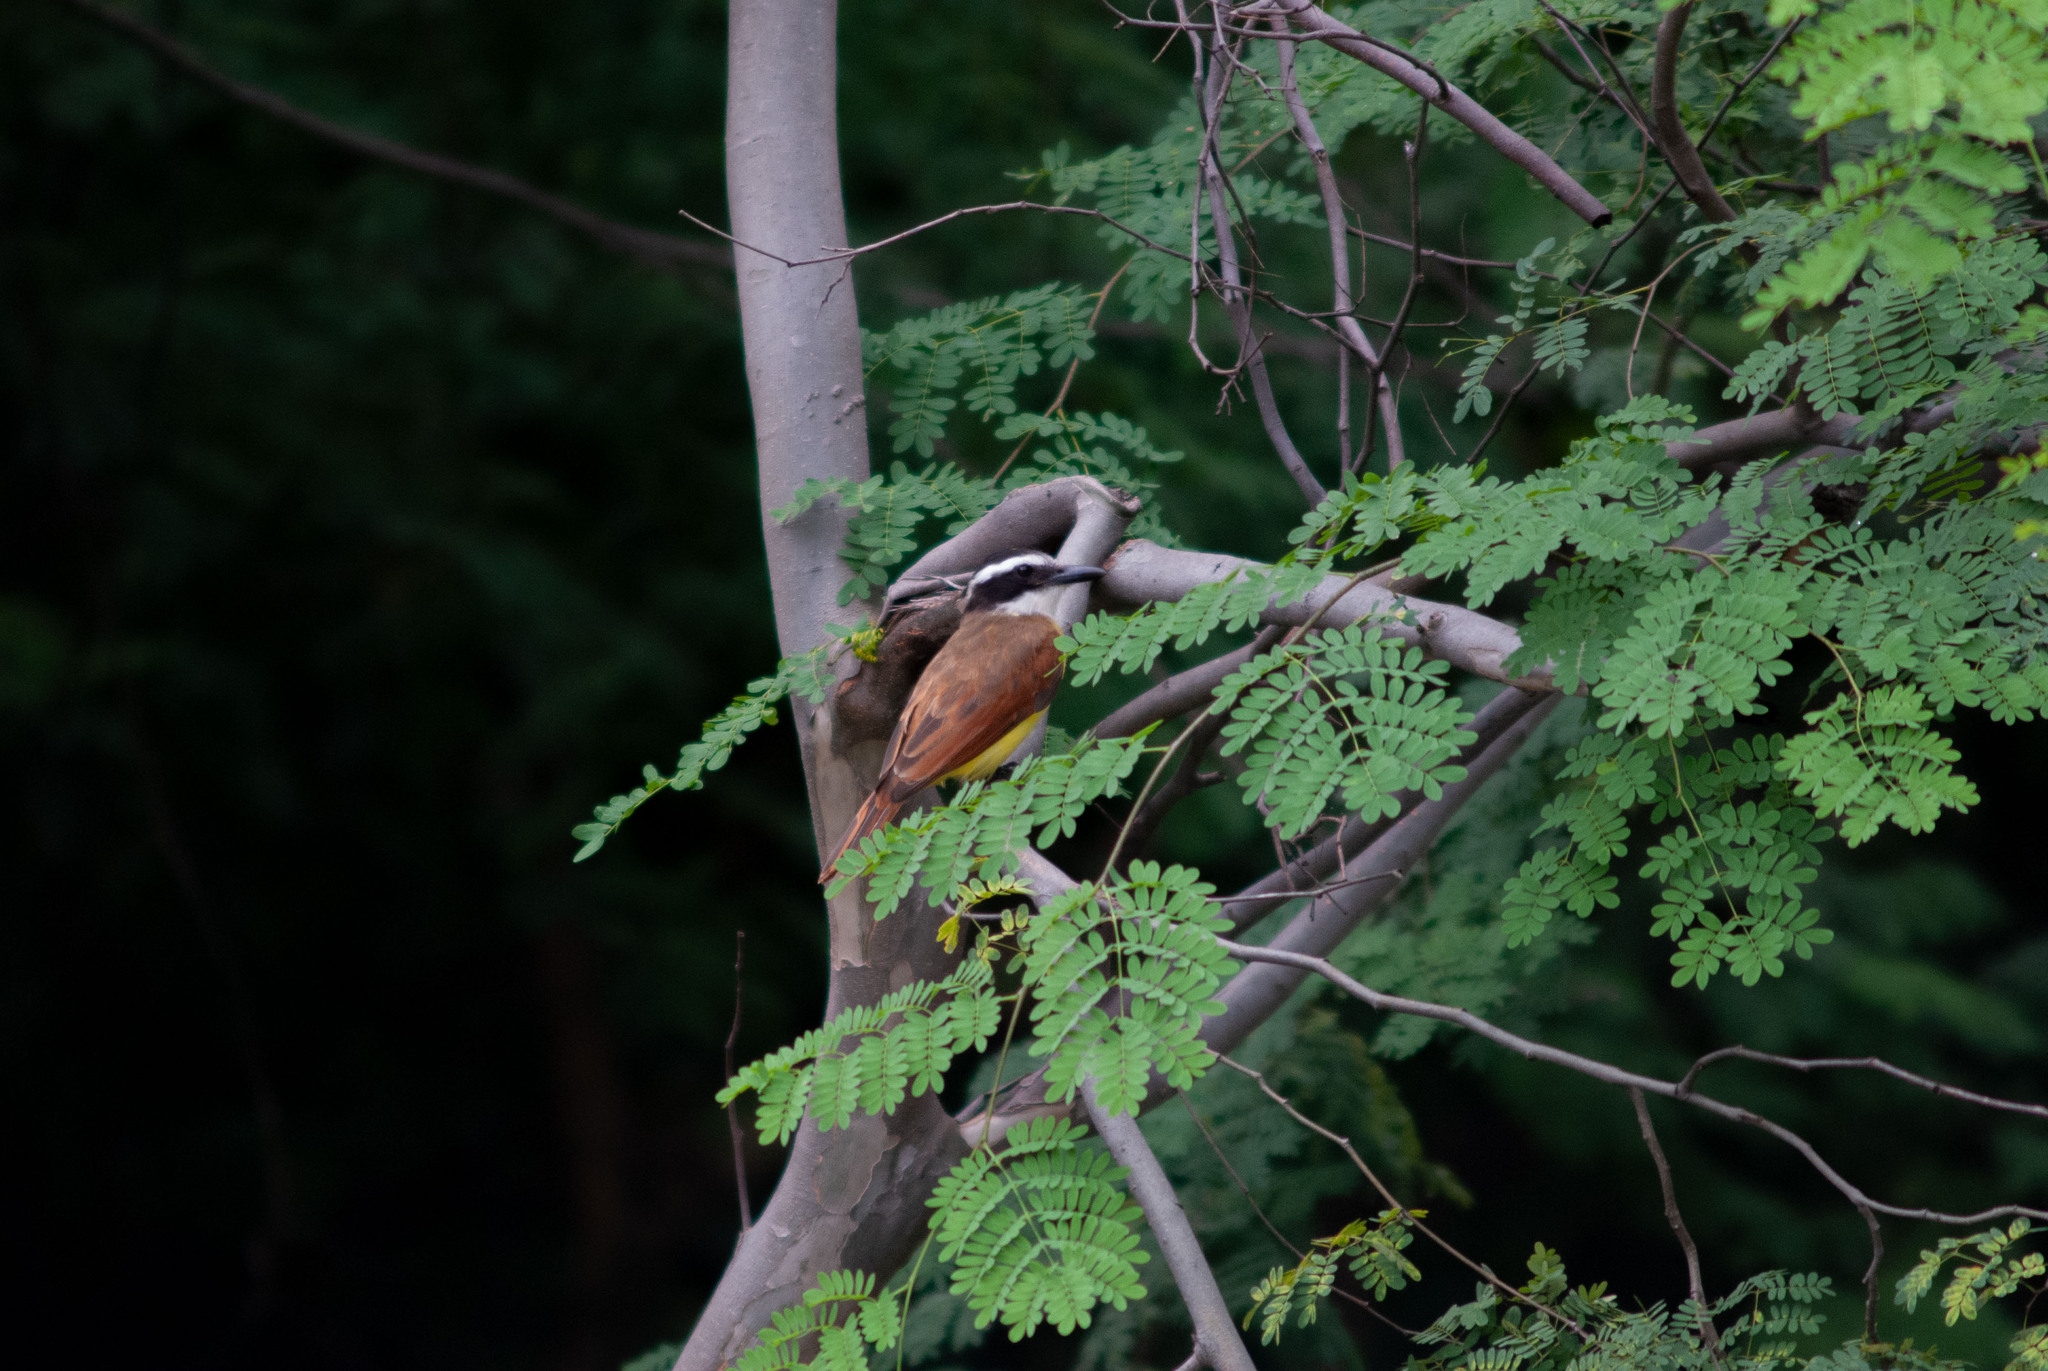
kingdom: Animalia
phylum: Chordata
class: Aves
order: Passeriformes
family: Tyrannidae
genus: Pitangus
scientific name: Pitangus sulphuratus
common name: Great kiskadee
